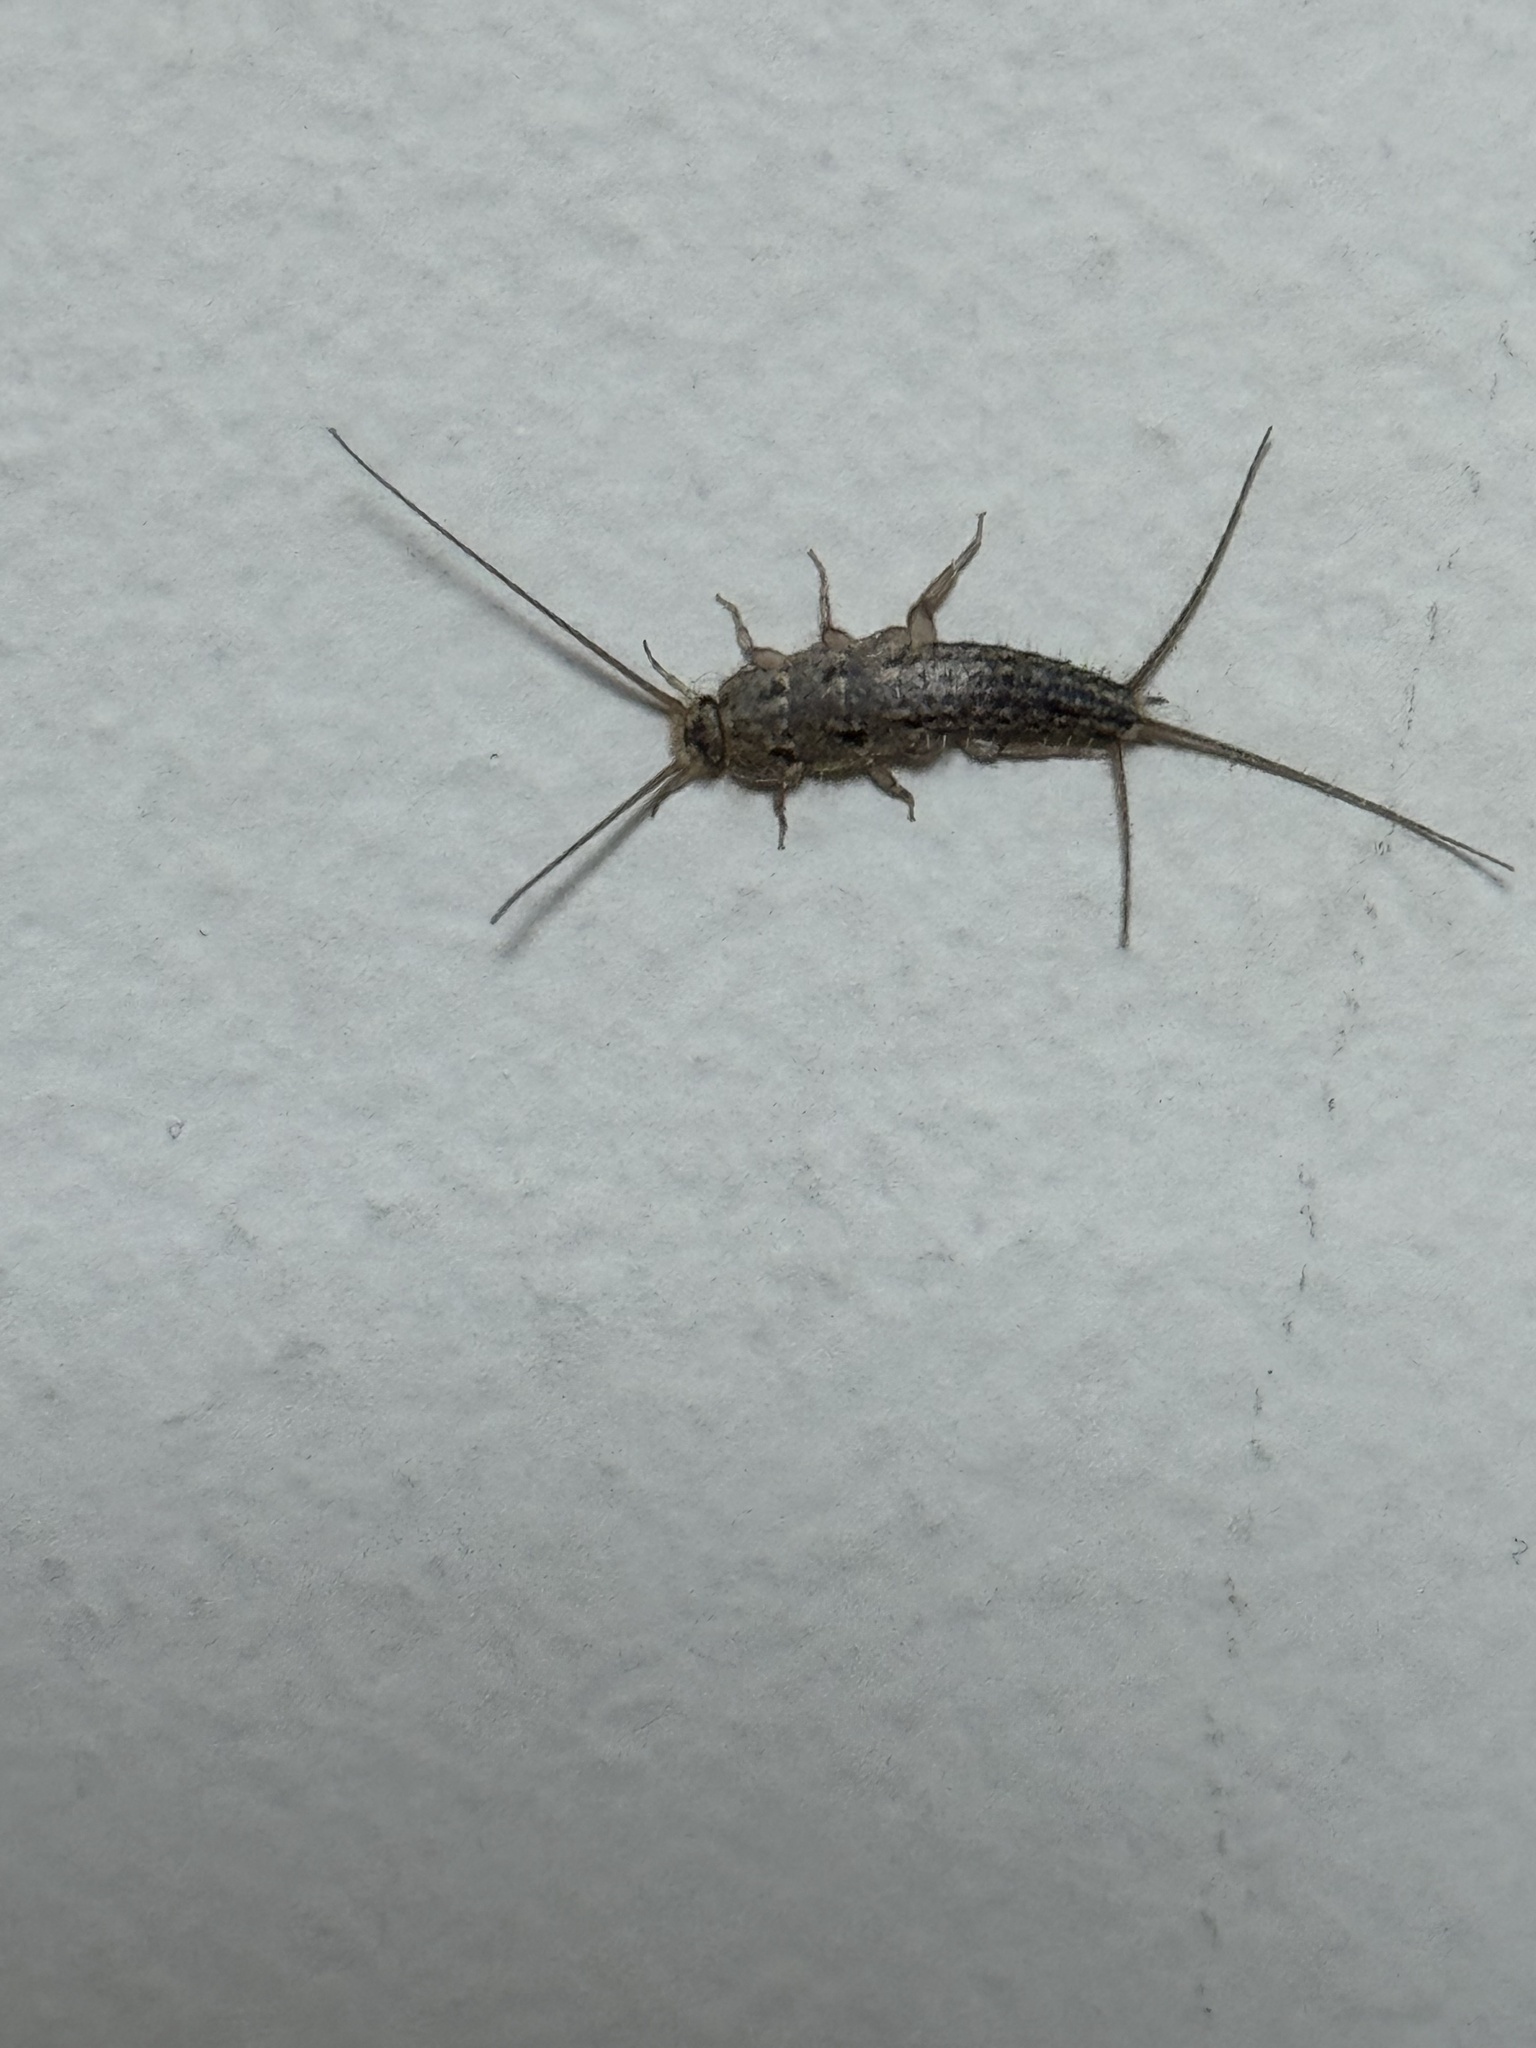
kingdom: Animalia
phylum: Arthropoda
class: Insecta
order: Zygentoma
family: Lepismatidae
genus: Ctenolepisma
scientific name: Ctenolepisma lineata
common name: Four-lined silverfish
